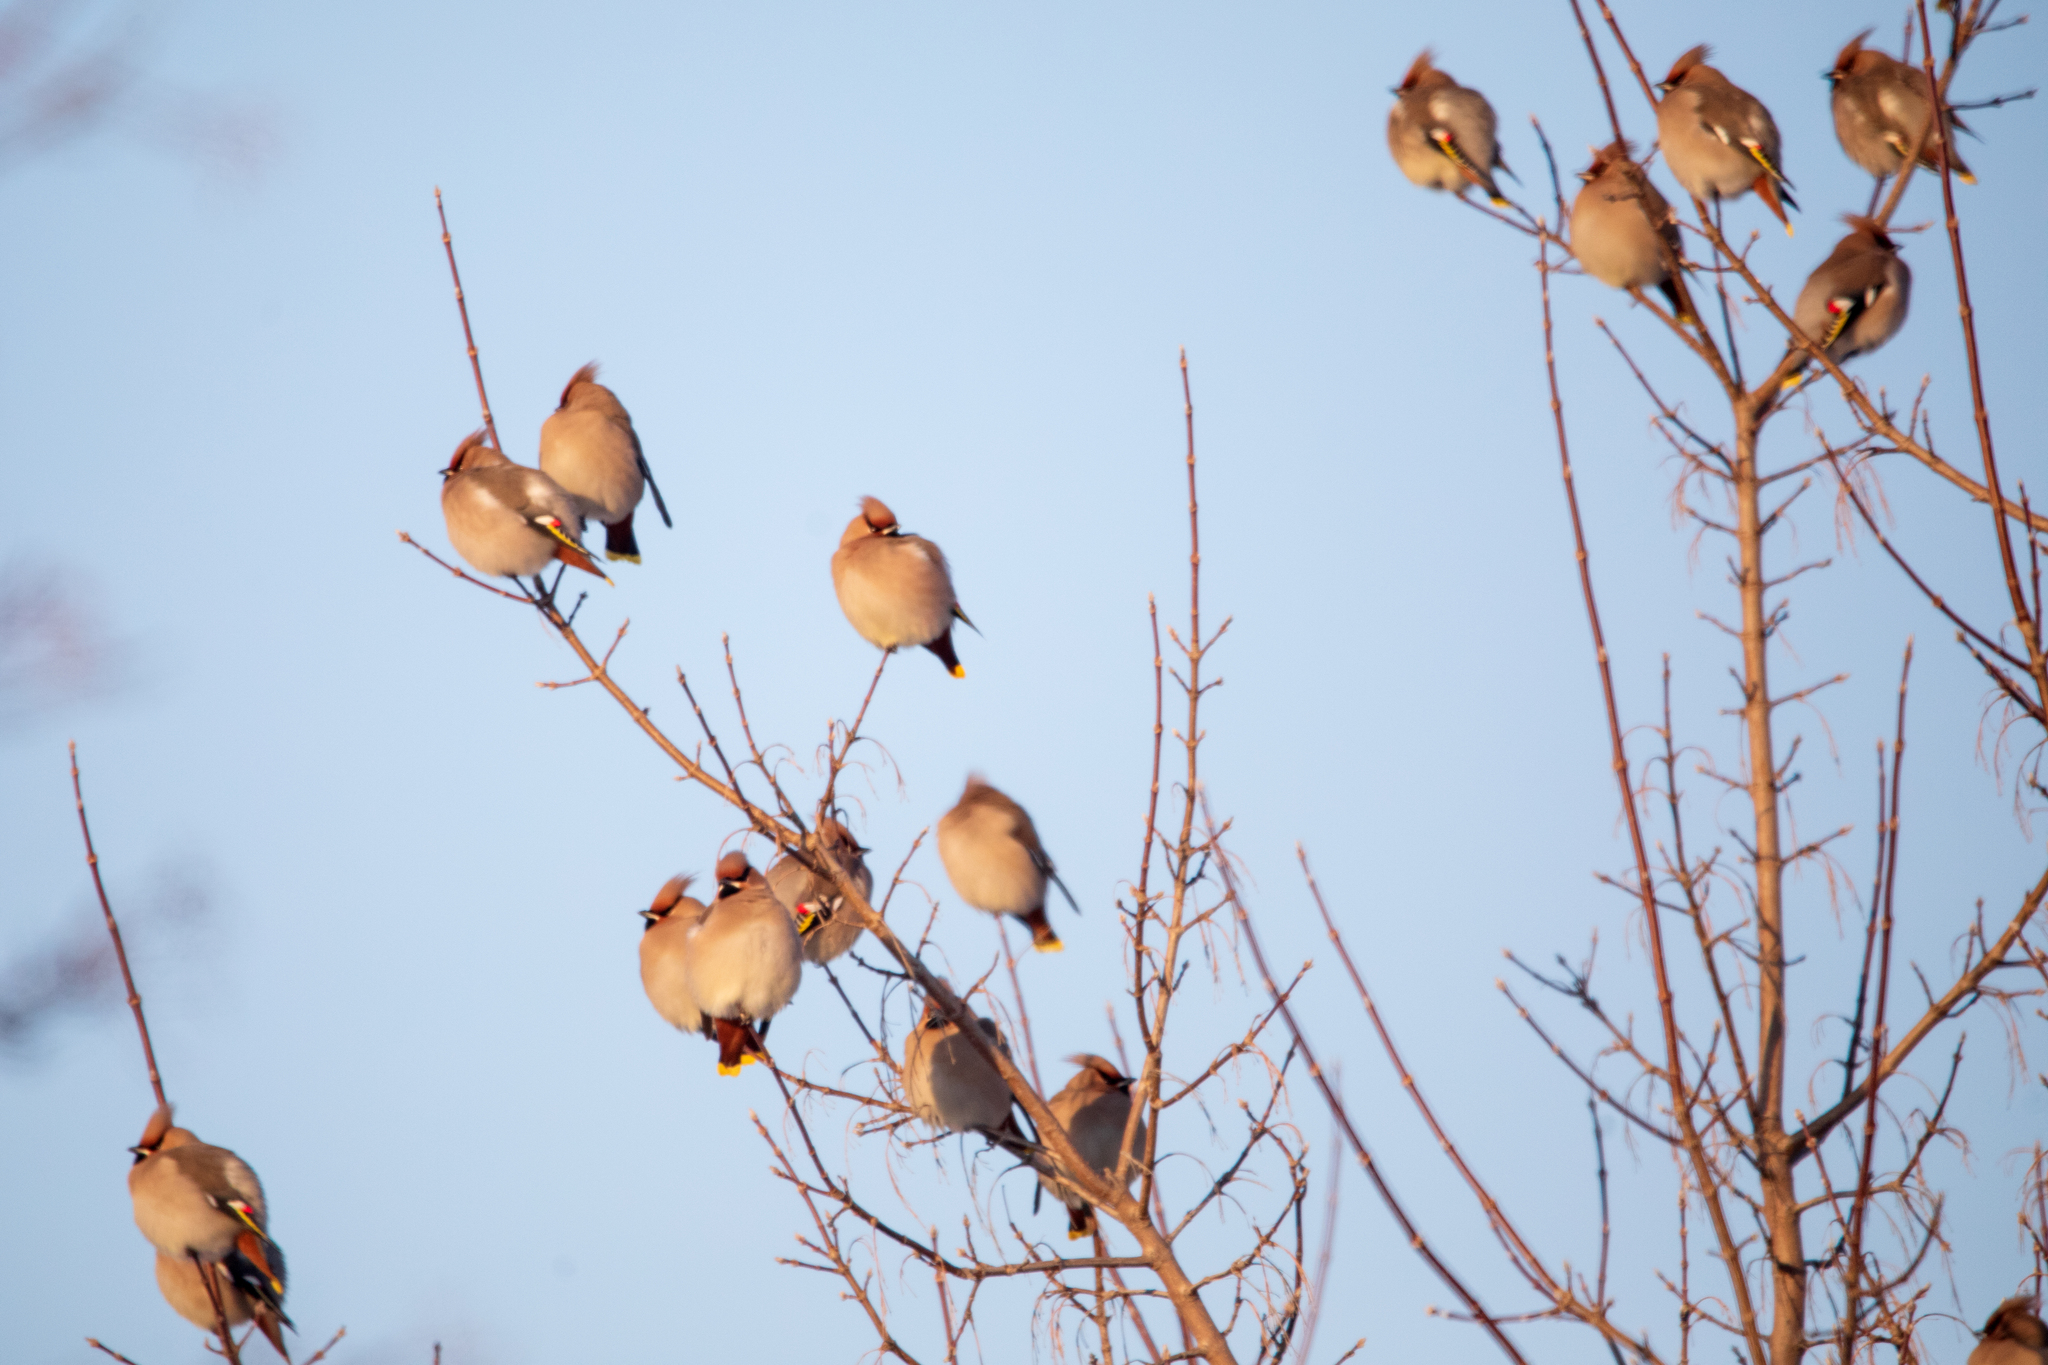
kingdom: Animalia
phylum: Chordata
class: Aves
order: Passeriformes
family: Bombycillidae
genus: Bombycilla
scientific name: Bombycilla garrulus
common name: Bohemian waxwing
